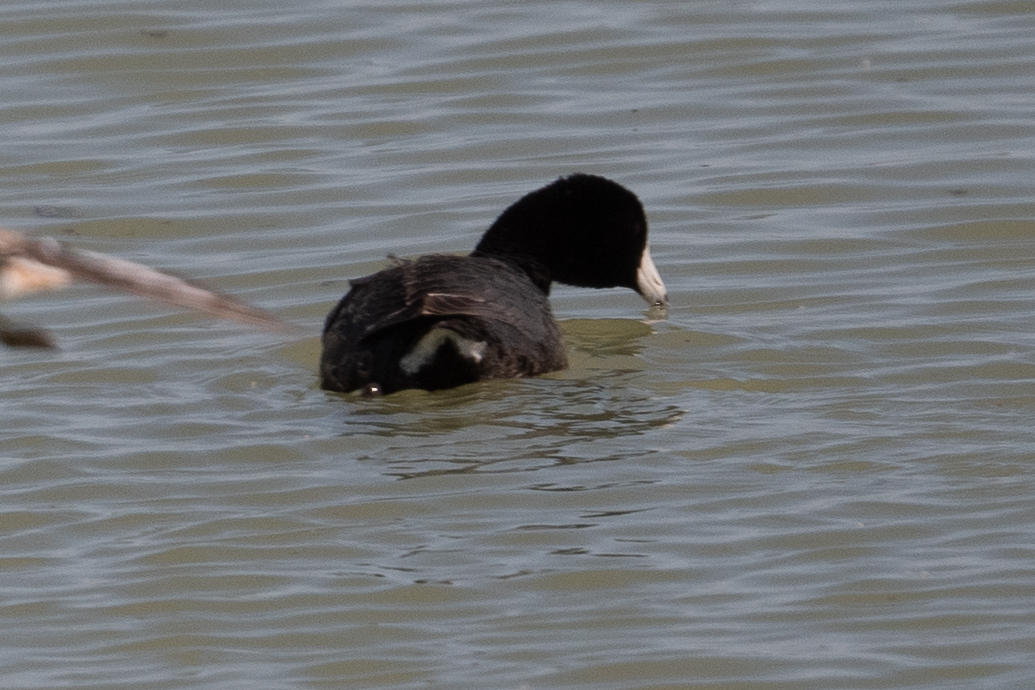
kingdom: Animalia
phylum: Chordata
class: Aves
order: Gruiformes
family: Rallidae
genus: Fulica
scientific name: Fulica americana
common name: American coot
